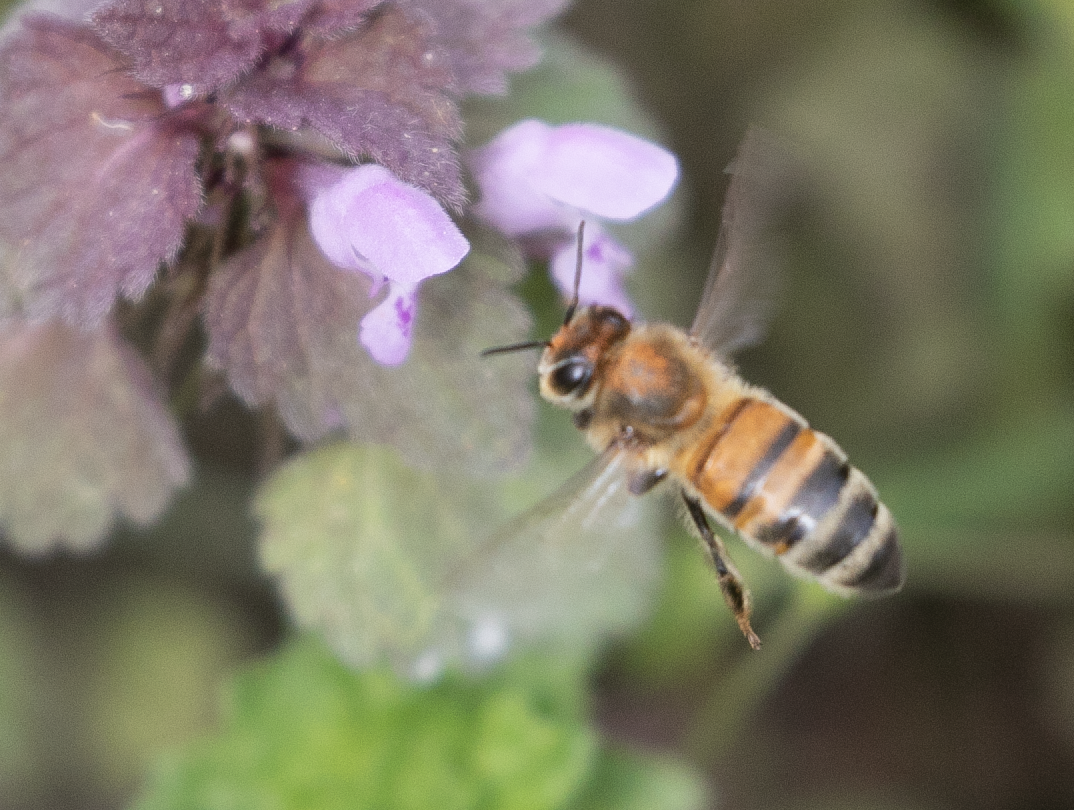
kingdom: Animalia
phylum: Arthropoda
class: Insecta
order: Hymenoptera
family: Apidae
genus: Apis
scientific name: Apis mellifera
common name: Honey bee
